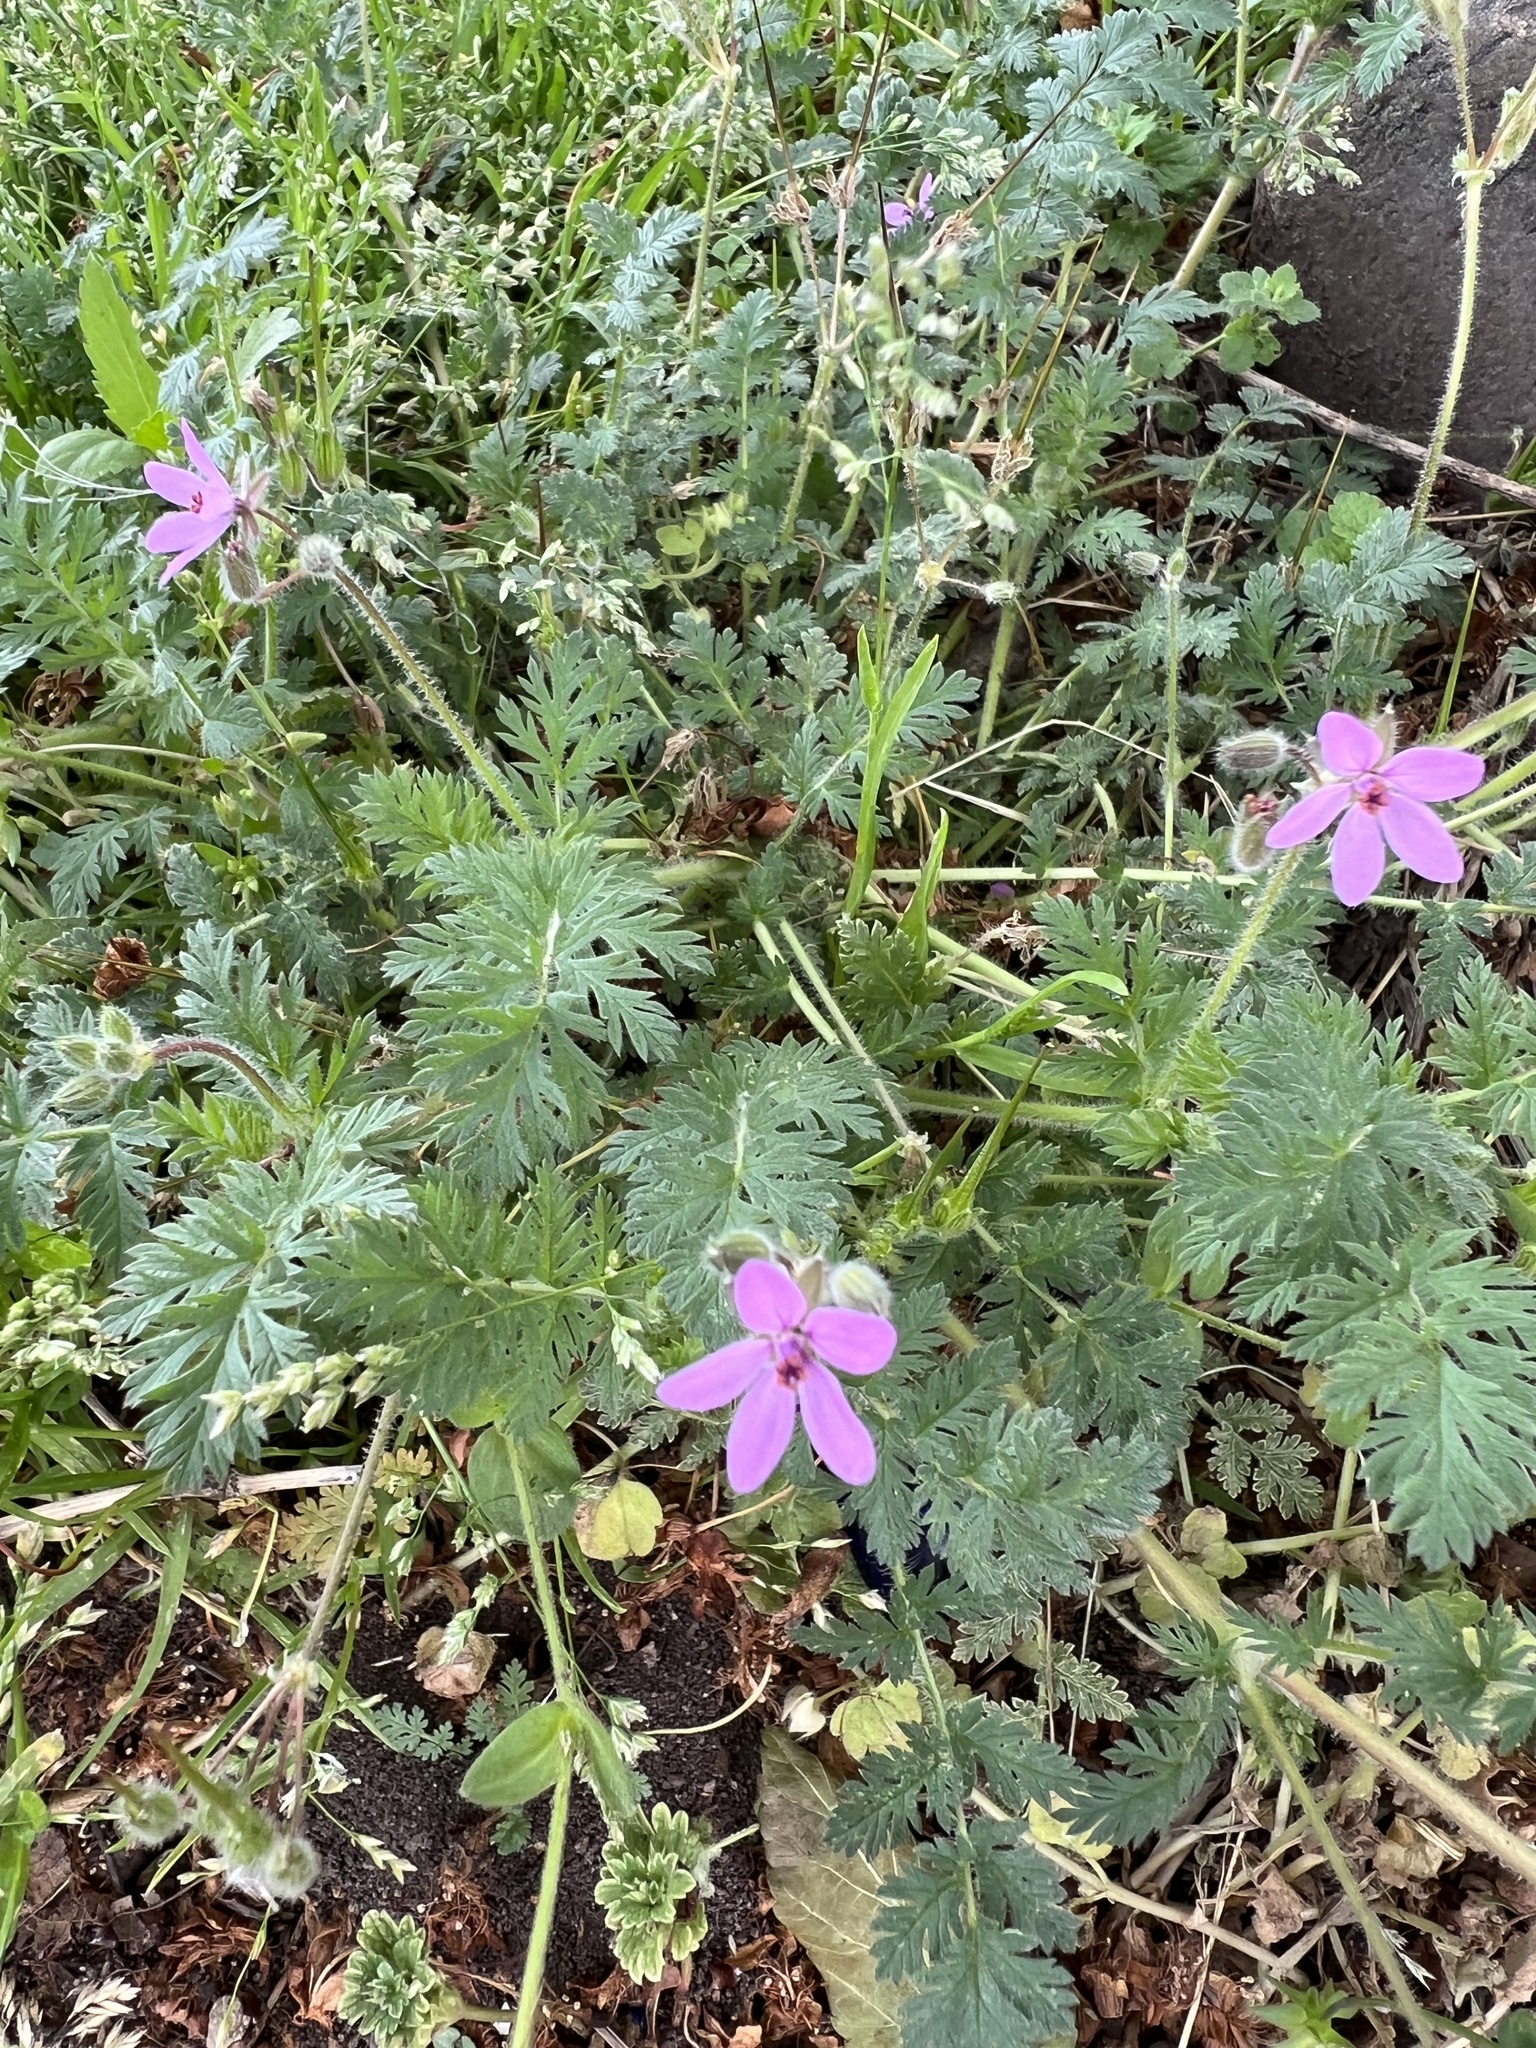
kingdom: Plantae
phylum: Tracheophyta
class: Magnoliopsida
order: Geraniales
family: Geraniaceae
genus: Erodium
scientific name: Erodium cicutarium
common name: Common stork's-bill
